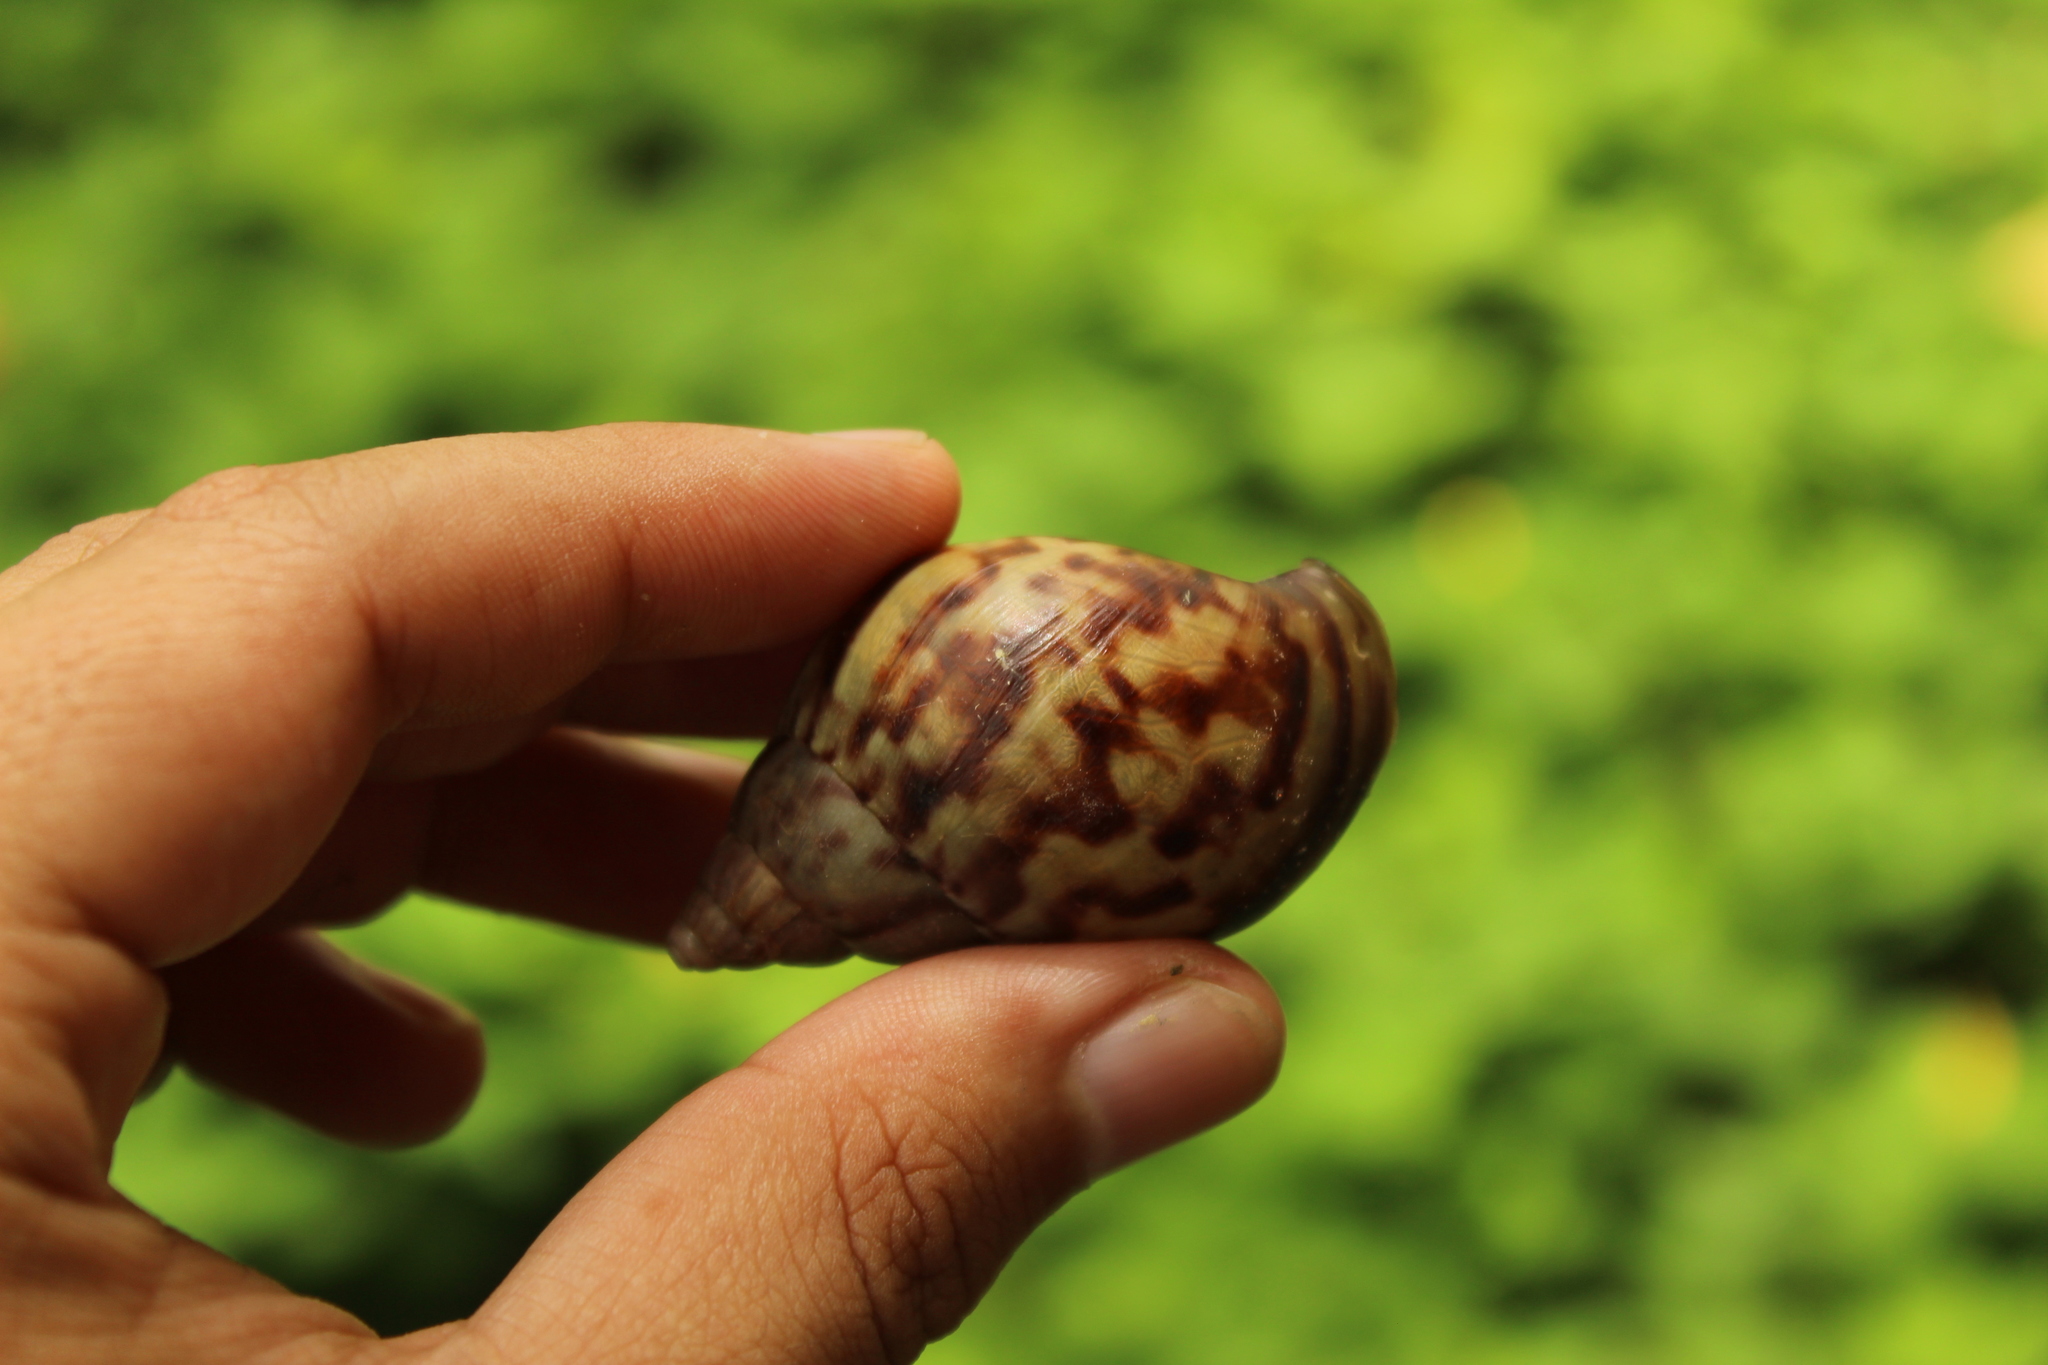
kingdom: Animalia
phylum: Mollusca
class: Gastropoda
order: Stylommatophora
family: Achatinidae
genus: Lissachatina
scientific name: Lissachatina fulica
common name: Giant african snail
